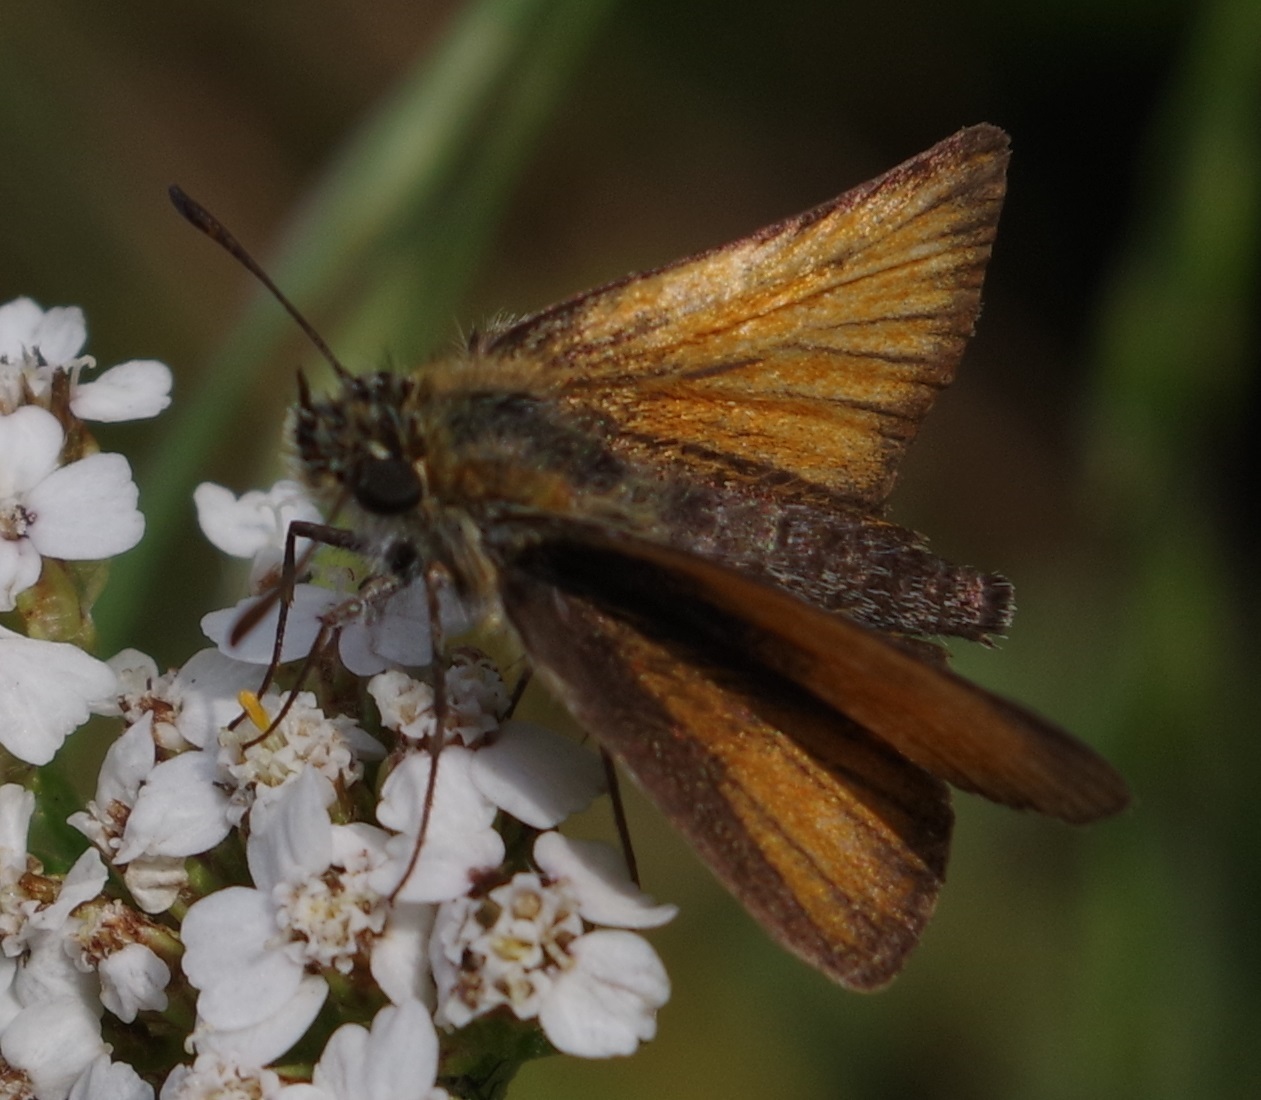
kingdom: Animalia
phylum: Arthropoda
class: Insecta
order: Lepidoptera
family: Hesperiidae
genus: Thymelicus
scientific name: Thymelicus lineola
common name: Essex skipper
